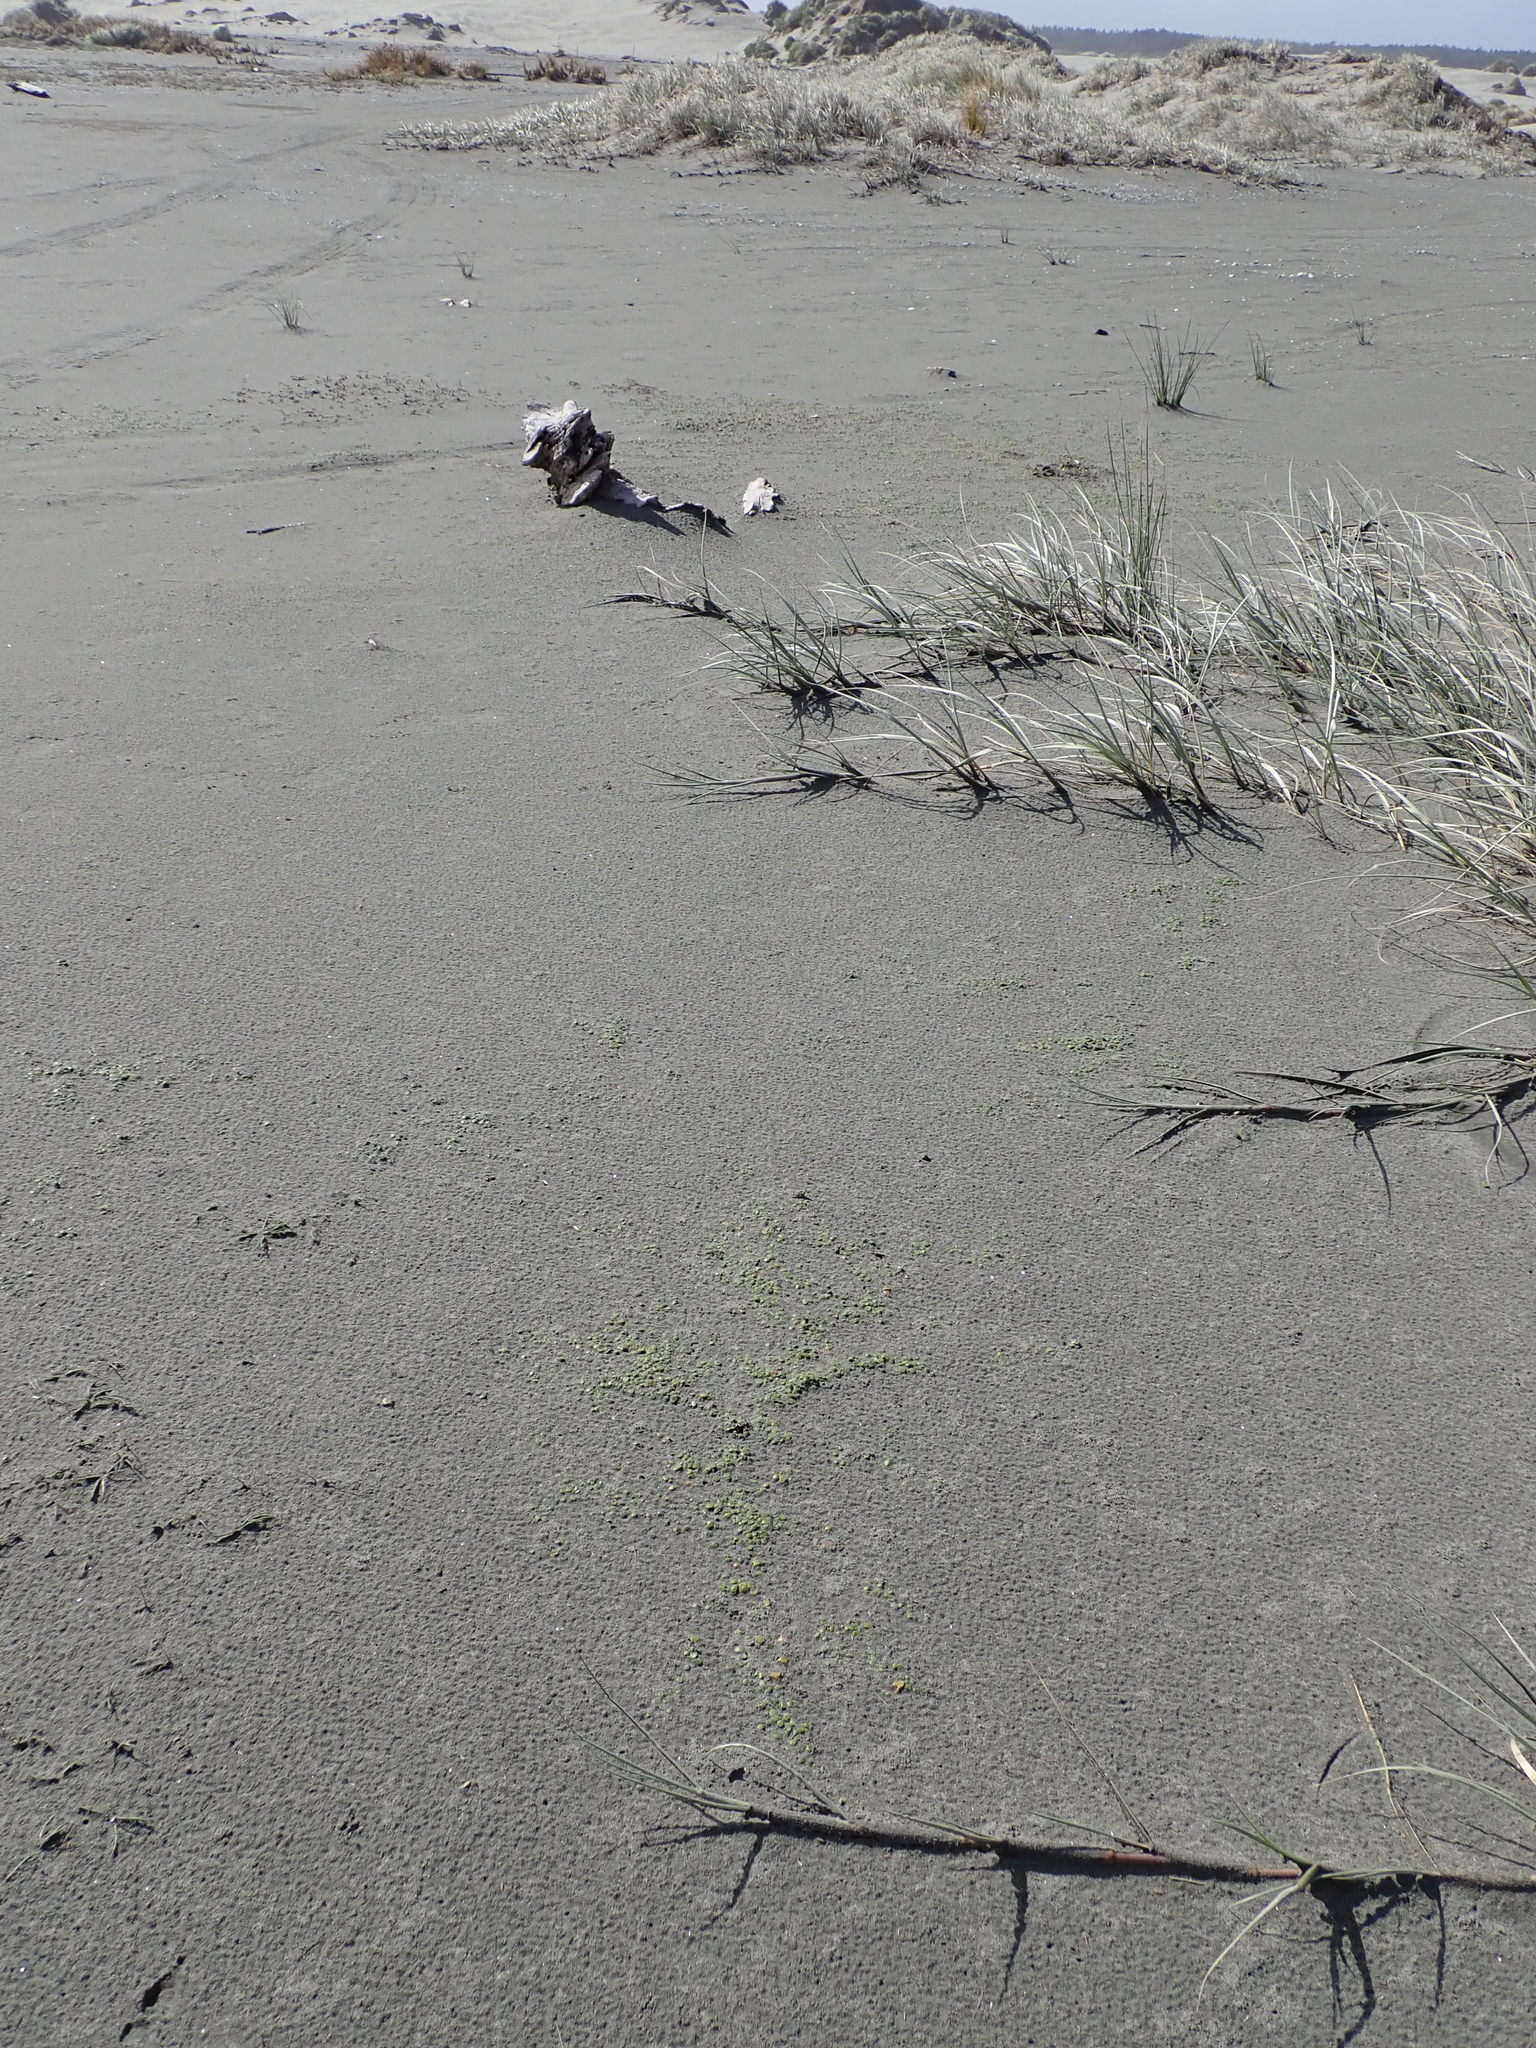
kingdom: Plantae
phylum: Tracheophyta
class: Magnoliopsida
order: Asterales
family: Goodeniaceae
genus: Goodenia
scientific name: Goodenia heenanii
